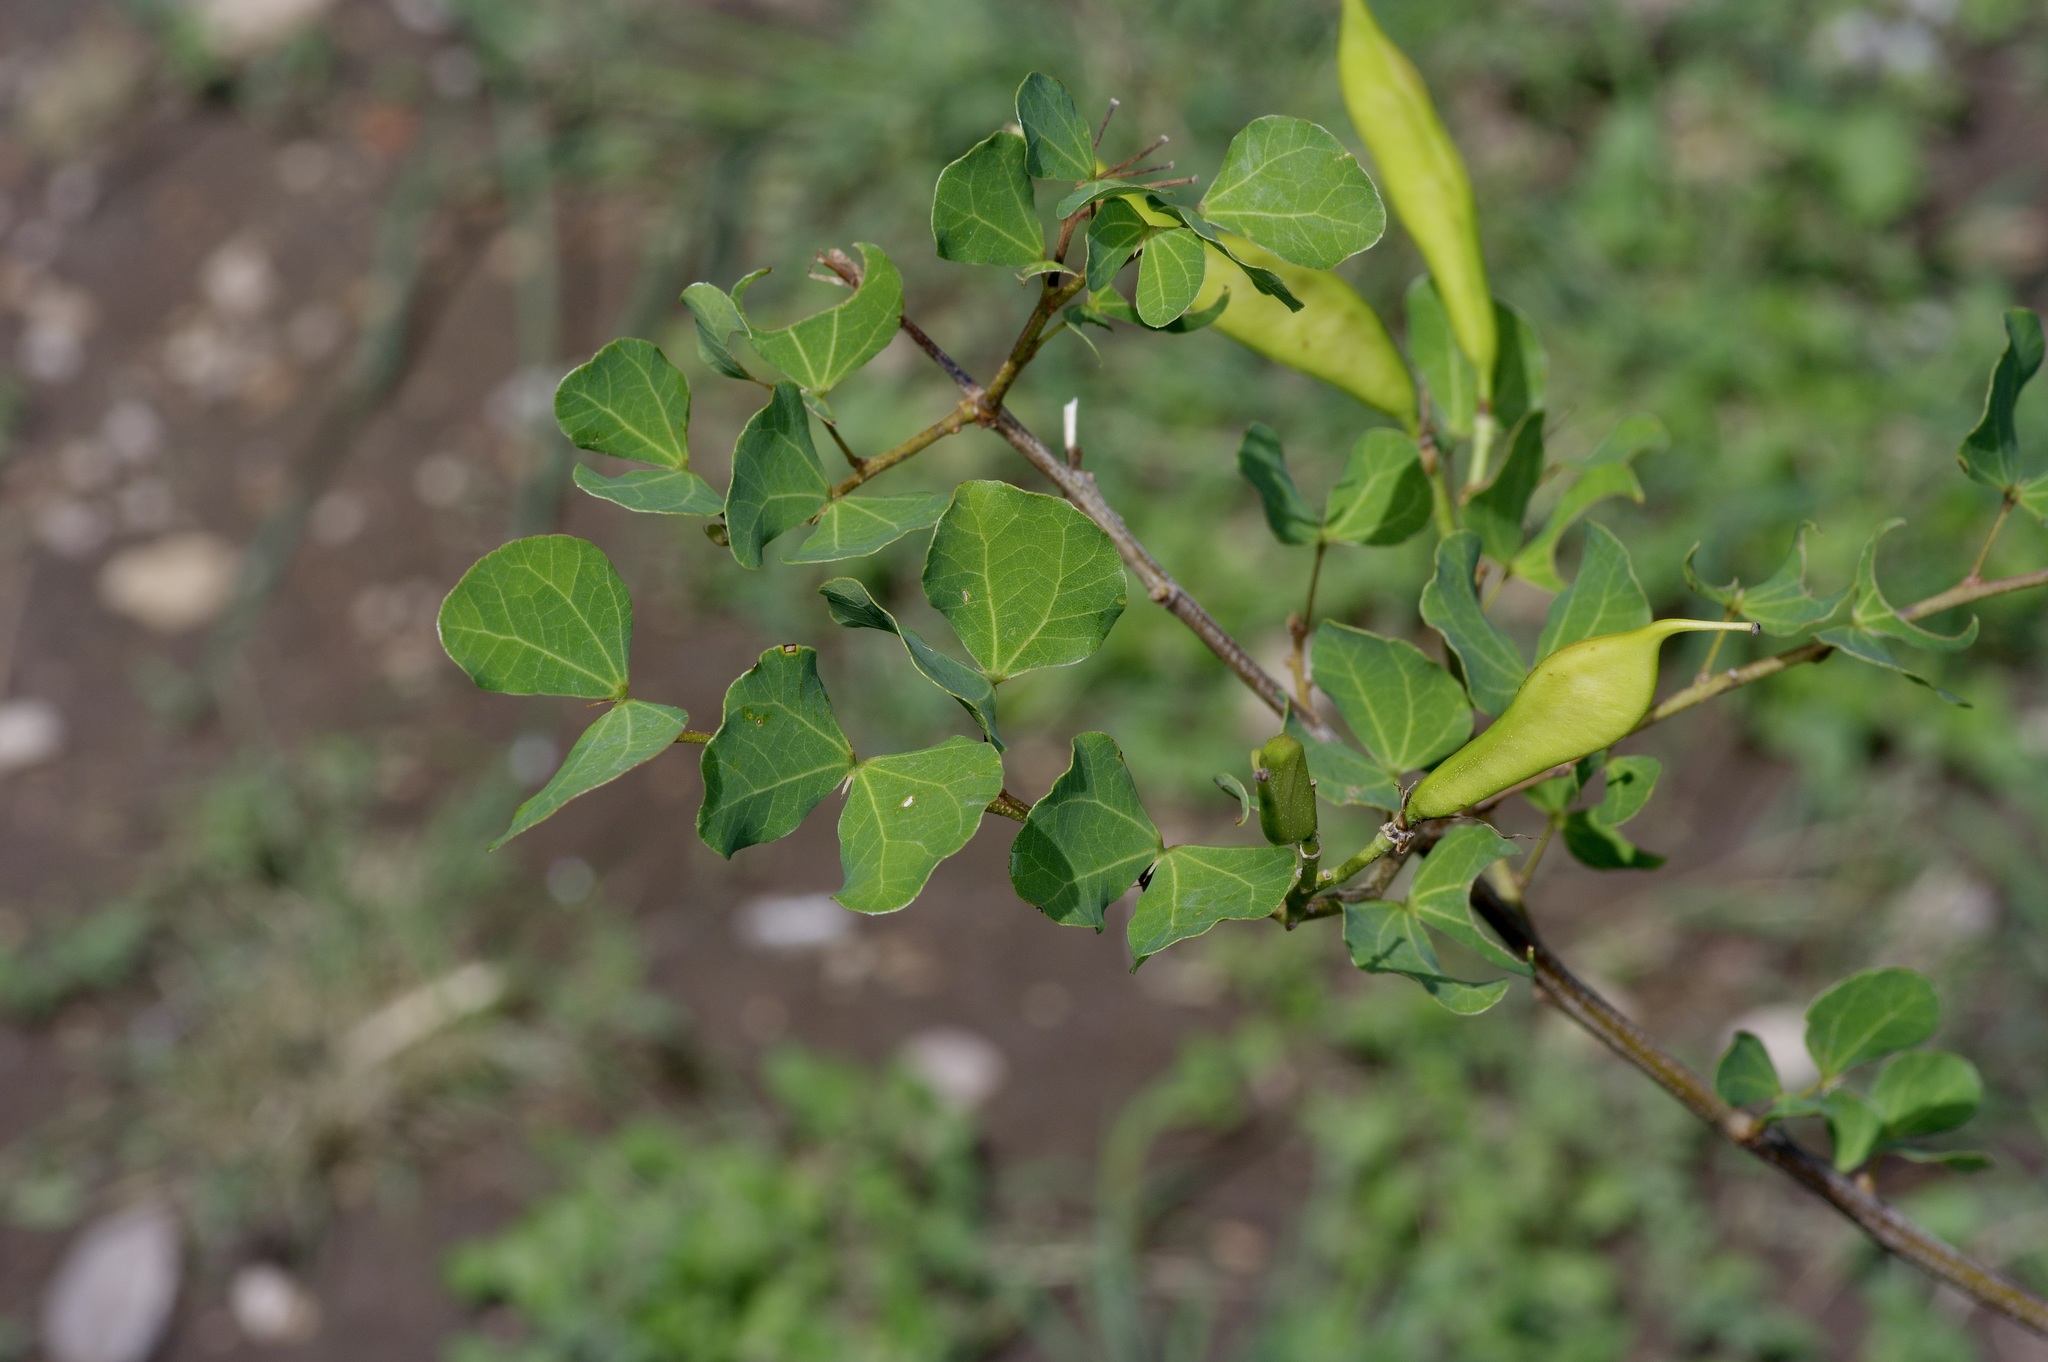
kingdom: Plantae
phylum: Tracheophyta
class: Magnoliopsida
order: Fabales
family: Fabaceae
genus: Bauhinia
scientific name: Bauhinia lunarioides
